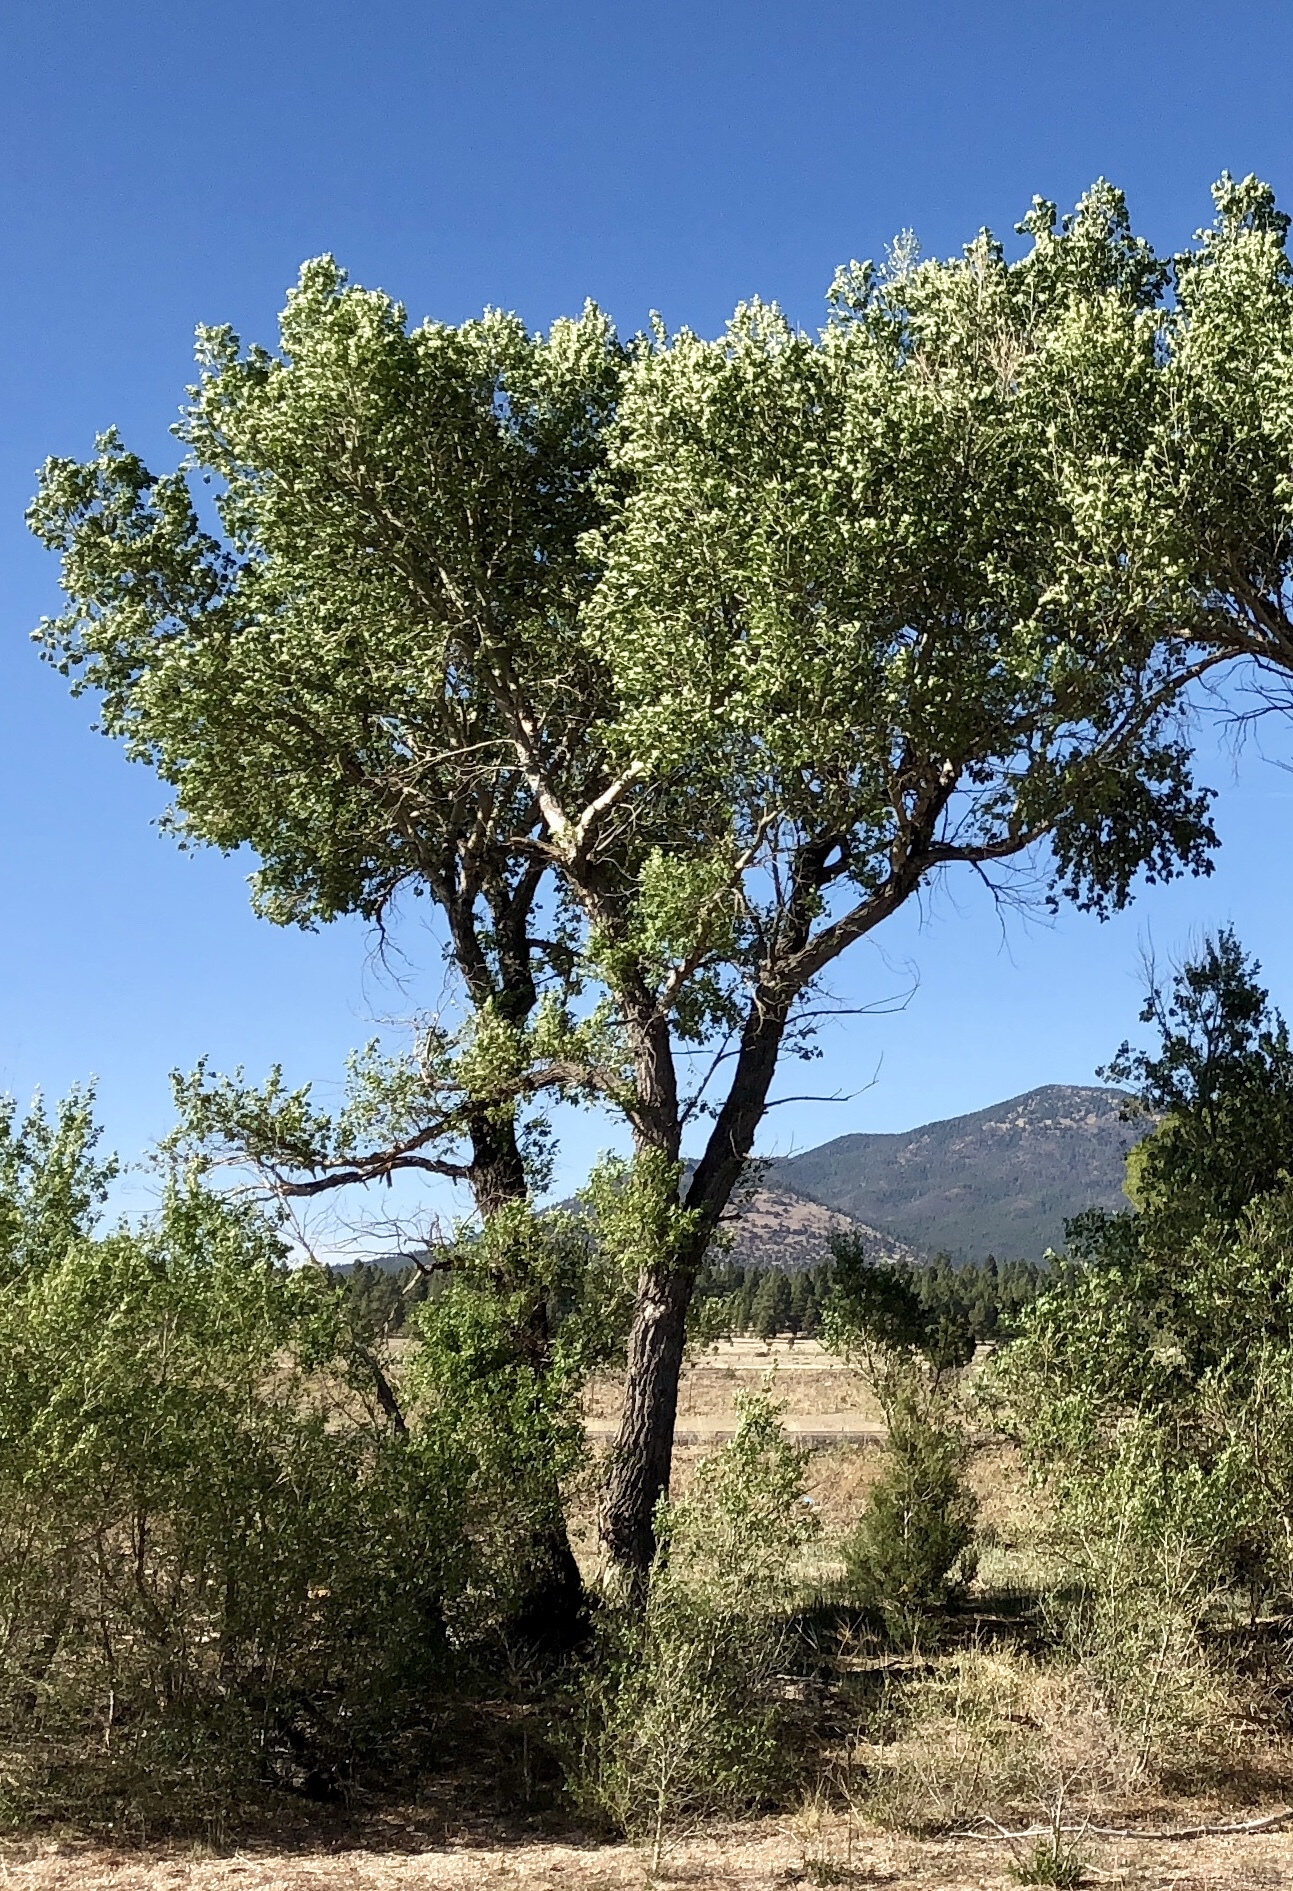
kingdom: Plantae
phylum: Tracheophyta
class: Magnoliopsida
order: Malpighiales
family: Salicaceae
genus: Populus
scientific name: Populus fremontii
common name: Fremont's cottonwood
